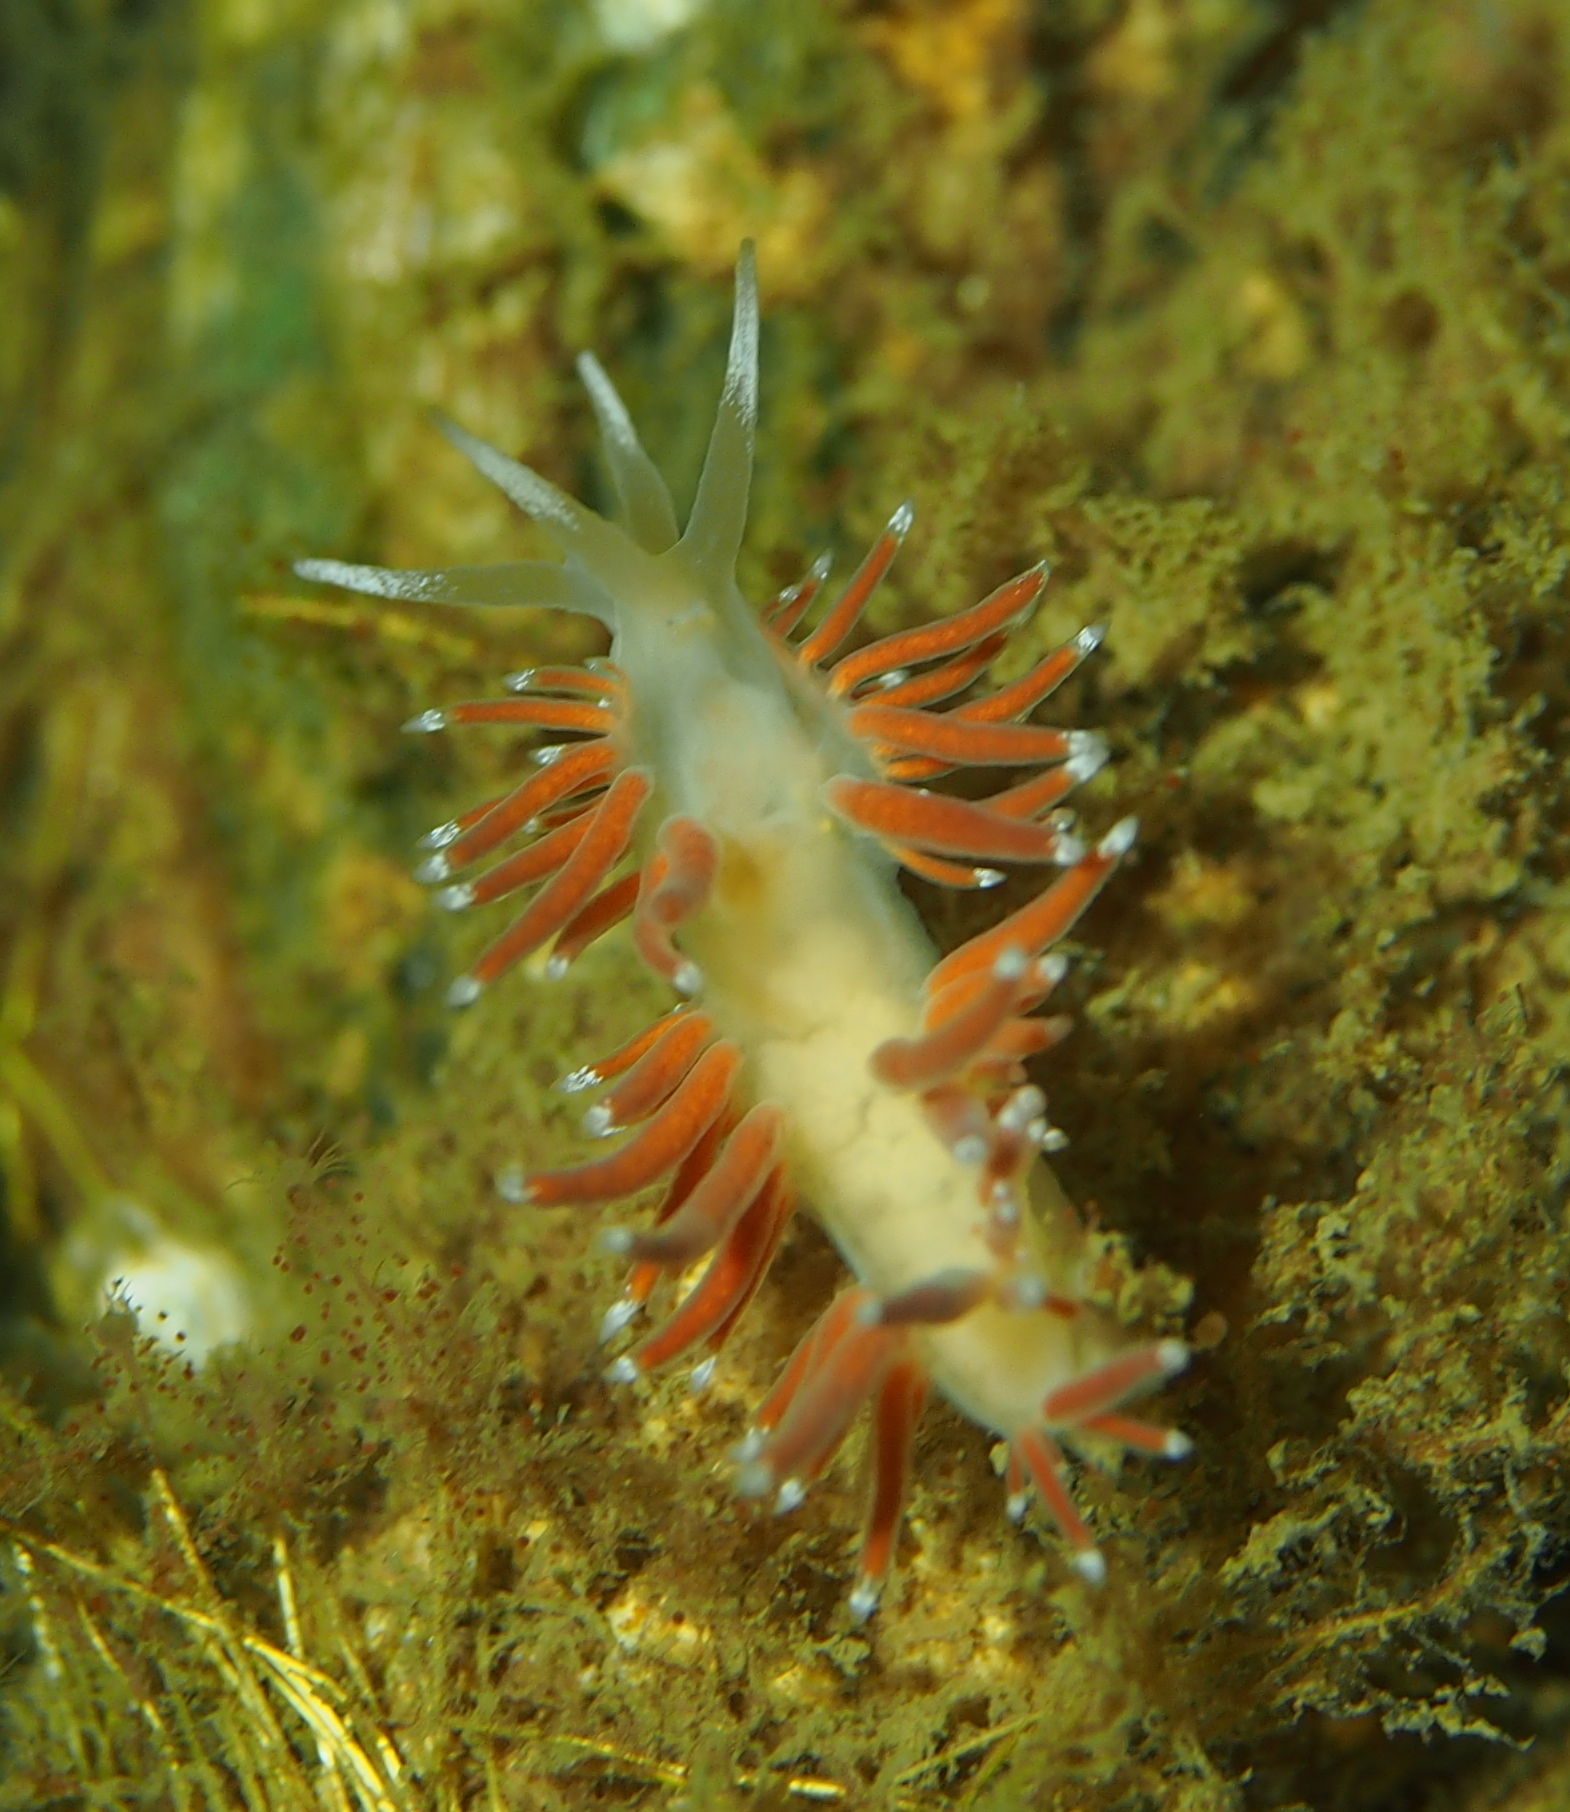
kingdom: Animalia
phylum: Mollusca
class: Gastropoda
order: Nudibranchia
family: Coryphellidae
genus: Coryphella
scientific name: Coryphella gracilis
